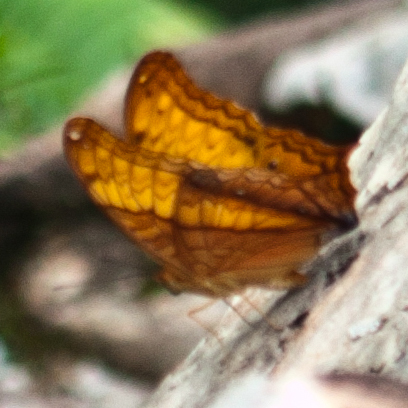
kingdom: Animalia
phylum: Arthropoda
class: Insecta
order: Lepidoptera
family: Nymphalidae
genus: Vindula
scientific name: Vindula erota
